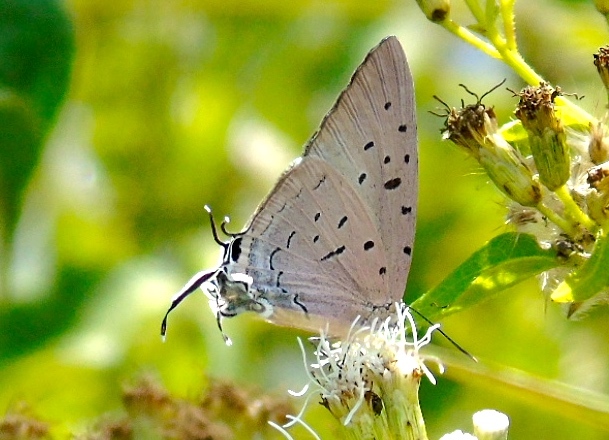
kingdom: Animalia
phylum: Arthropoda
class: Insecta
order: Lepidoptera
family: Lycaenidae
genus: Pseudolycaena
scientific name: Pseudolycaena damo
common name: Sky-blue hairstreak
